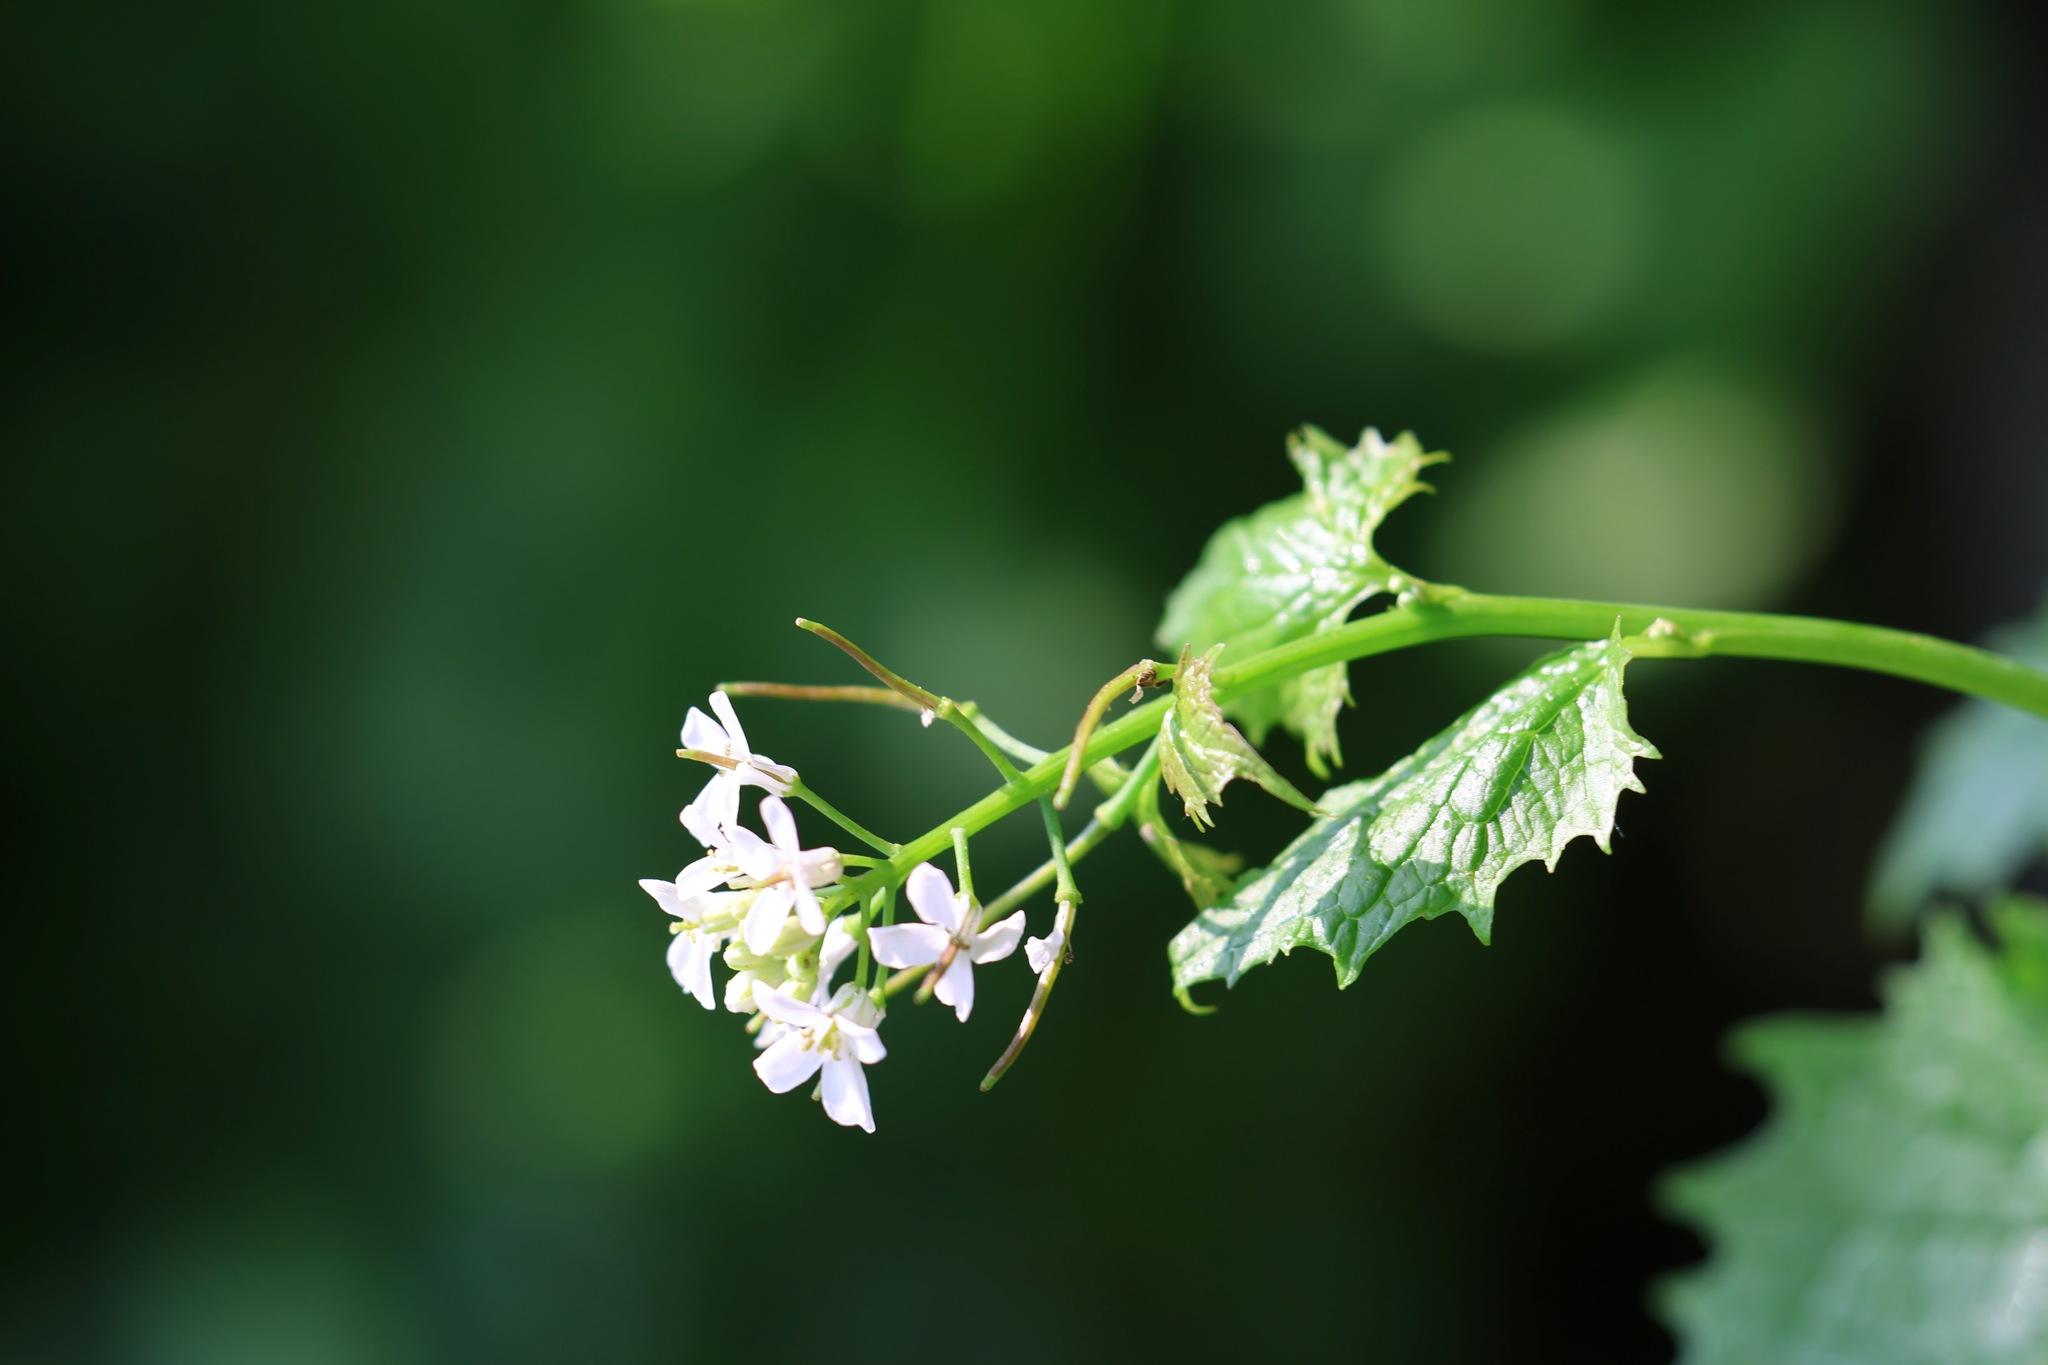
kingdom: Plantae
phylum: Tracheophyta
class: Magnoliopsida
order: Brassicales
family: Brassicaceae
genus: Alliaria
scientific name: Alliaria petiolata
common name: Garlic mustard
